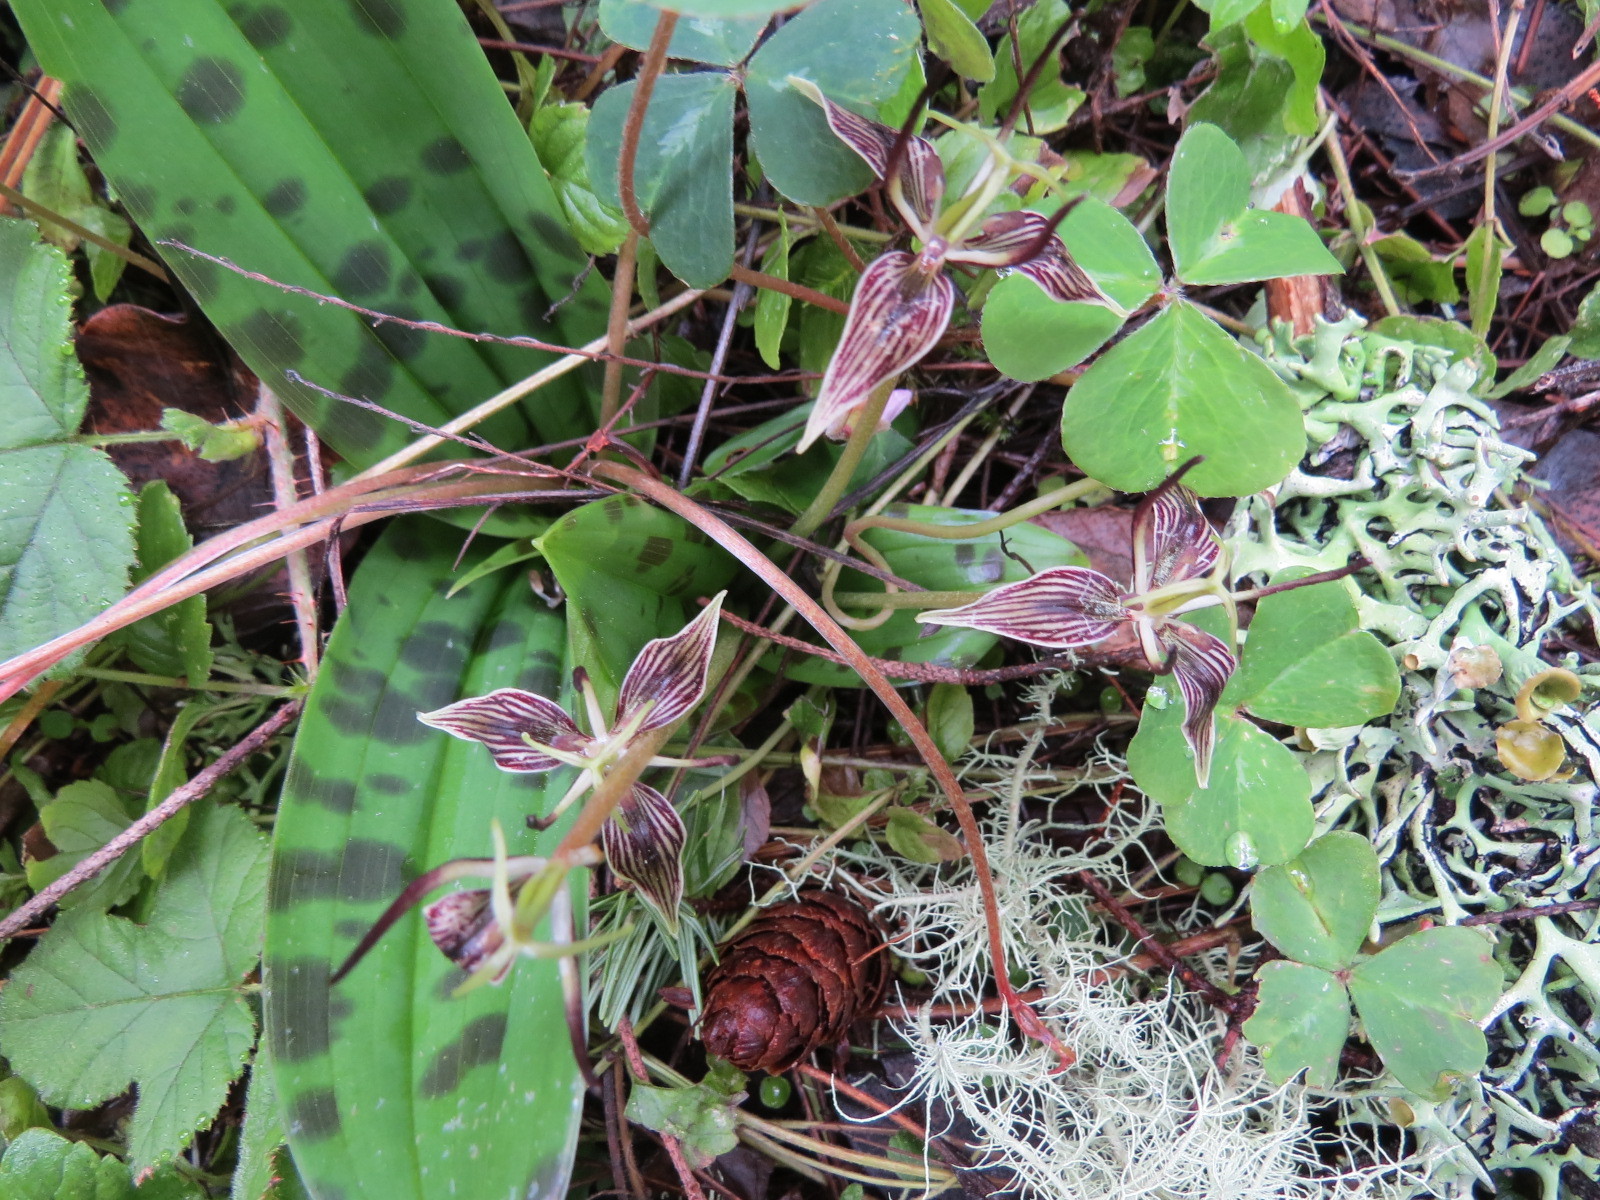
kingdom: Plantae
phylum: Tracheophyta
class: Liliopsida
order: Liliales
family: Liliaceae
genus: Scoliopus
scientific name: Scoliopus bigelovii
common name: Foetid adder's-tongue
